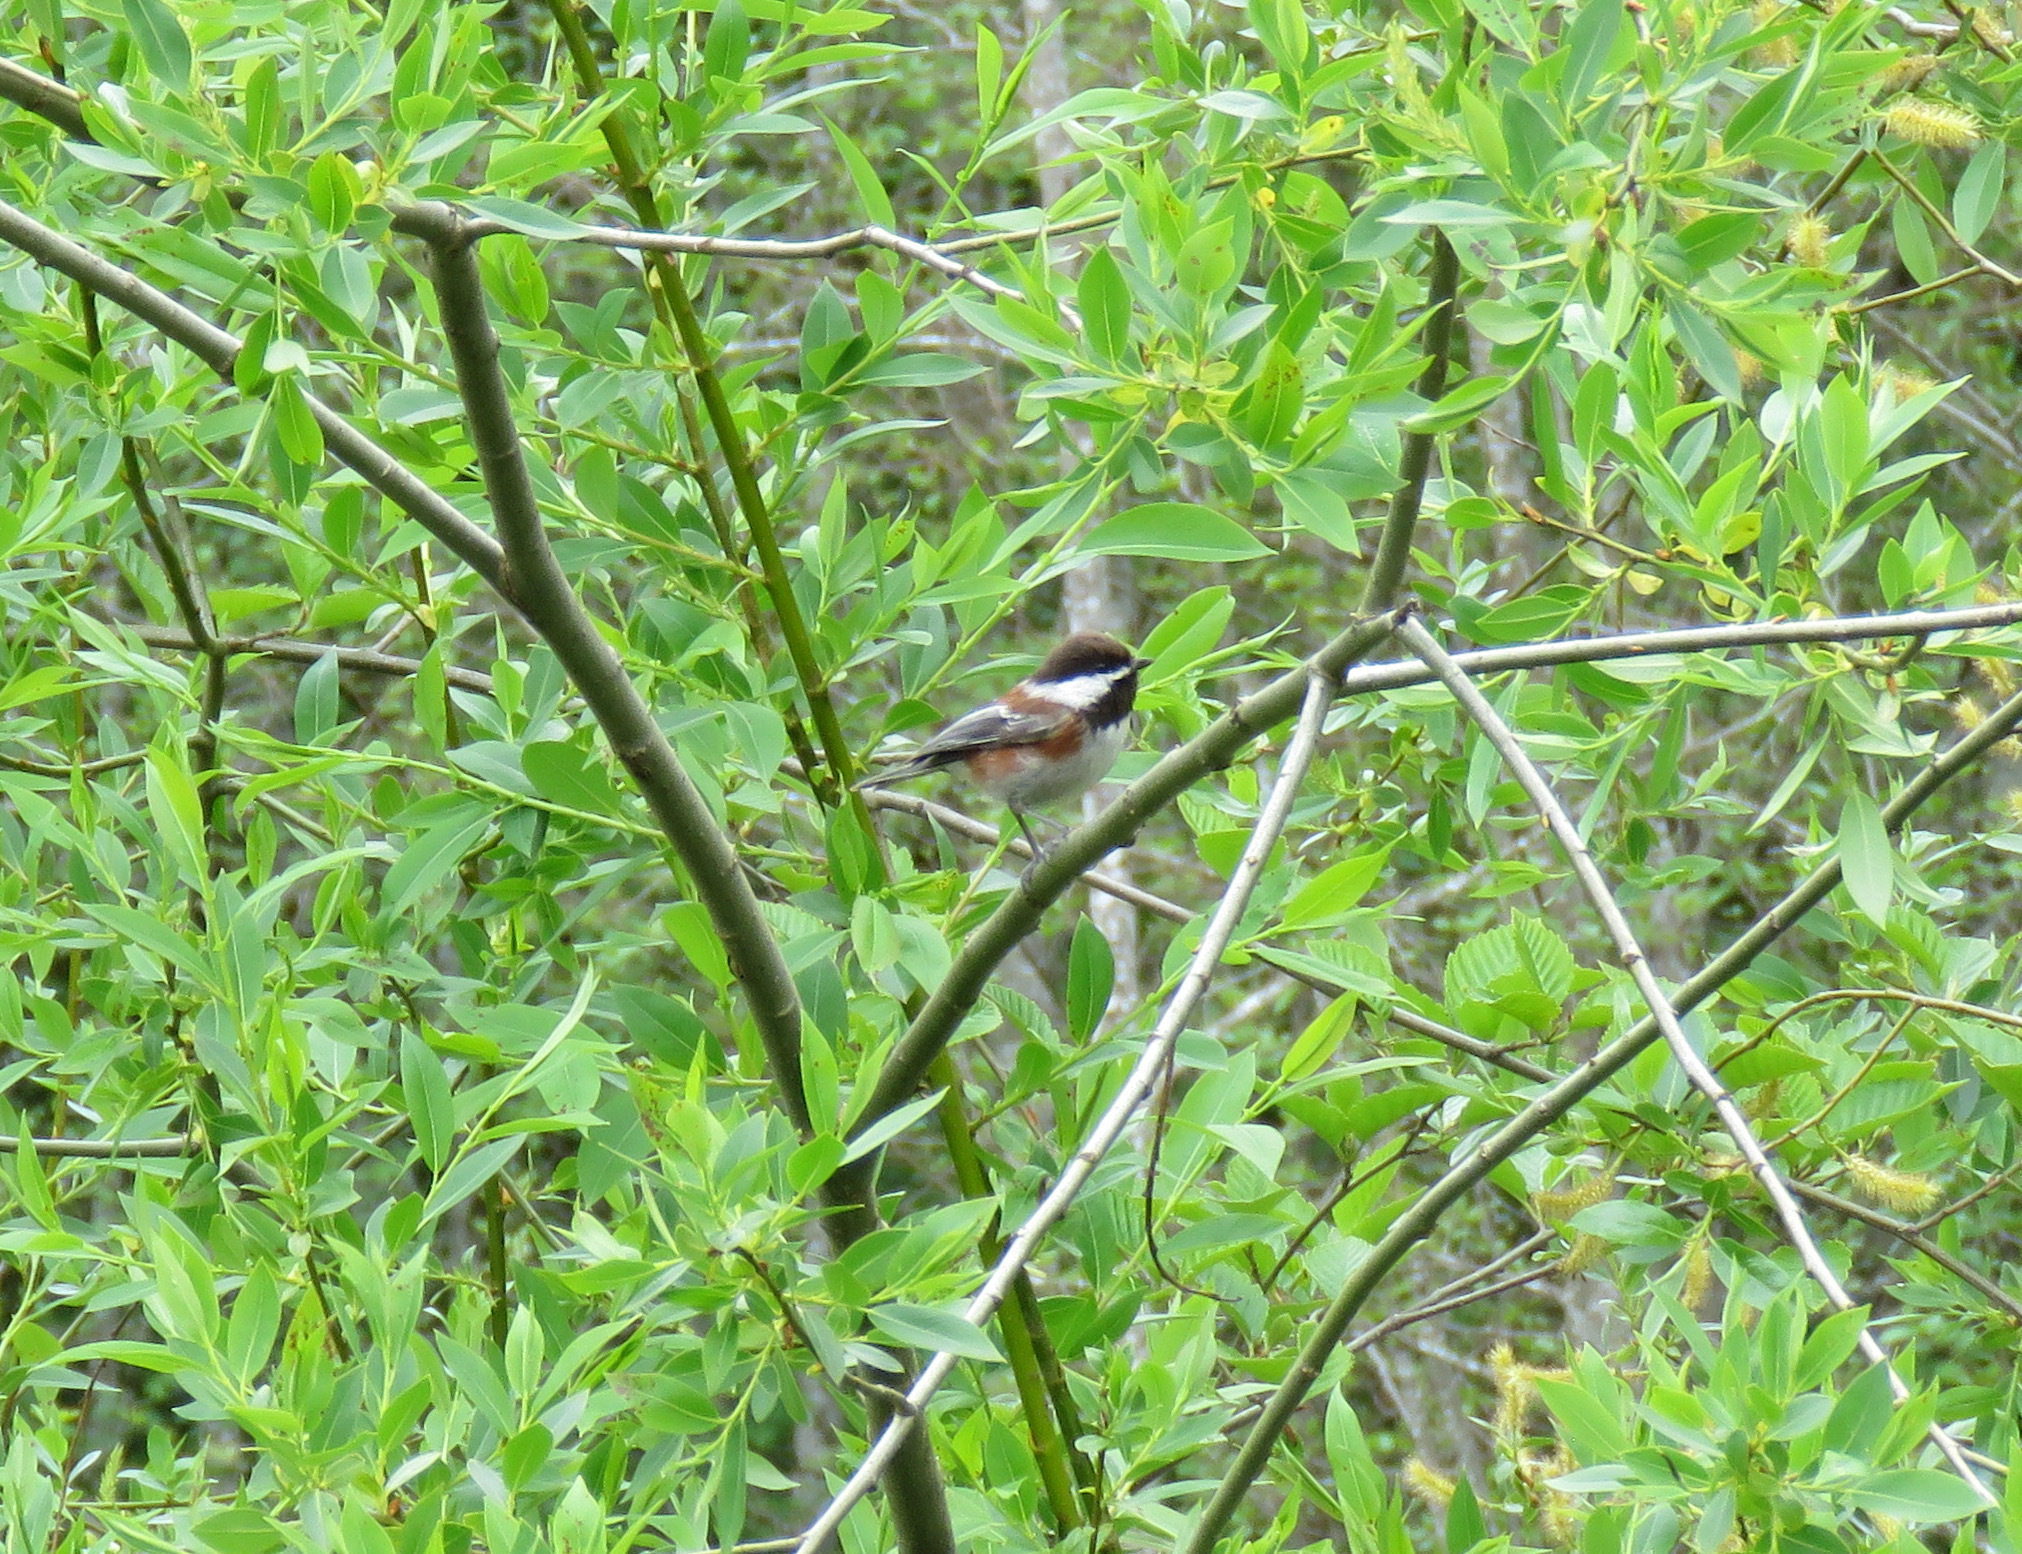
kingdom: Animalia
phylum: Chordata
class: Aves
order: Passeriformes
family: Paridae
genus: Poecile
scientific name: Poecile rufescens
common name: Chestnut-backed chickadee
